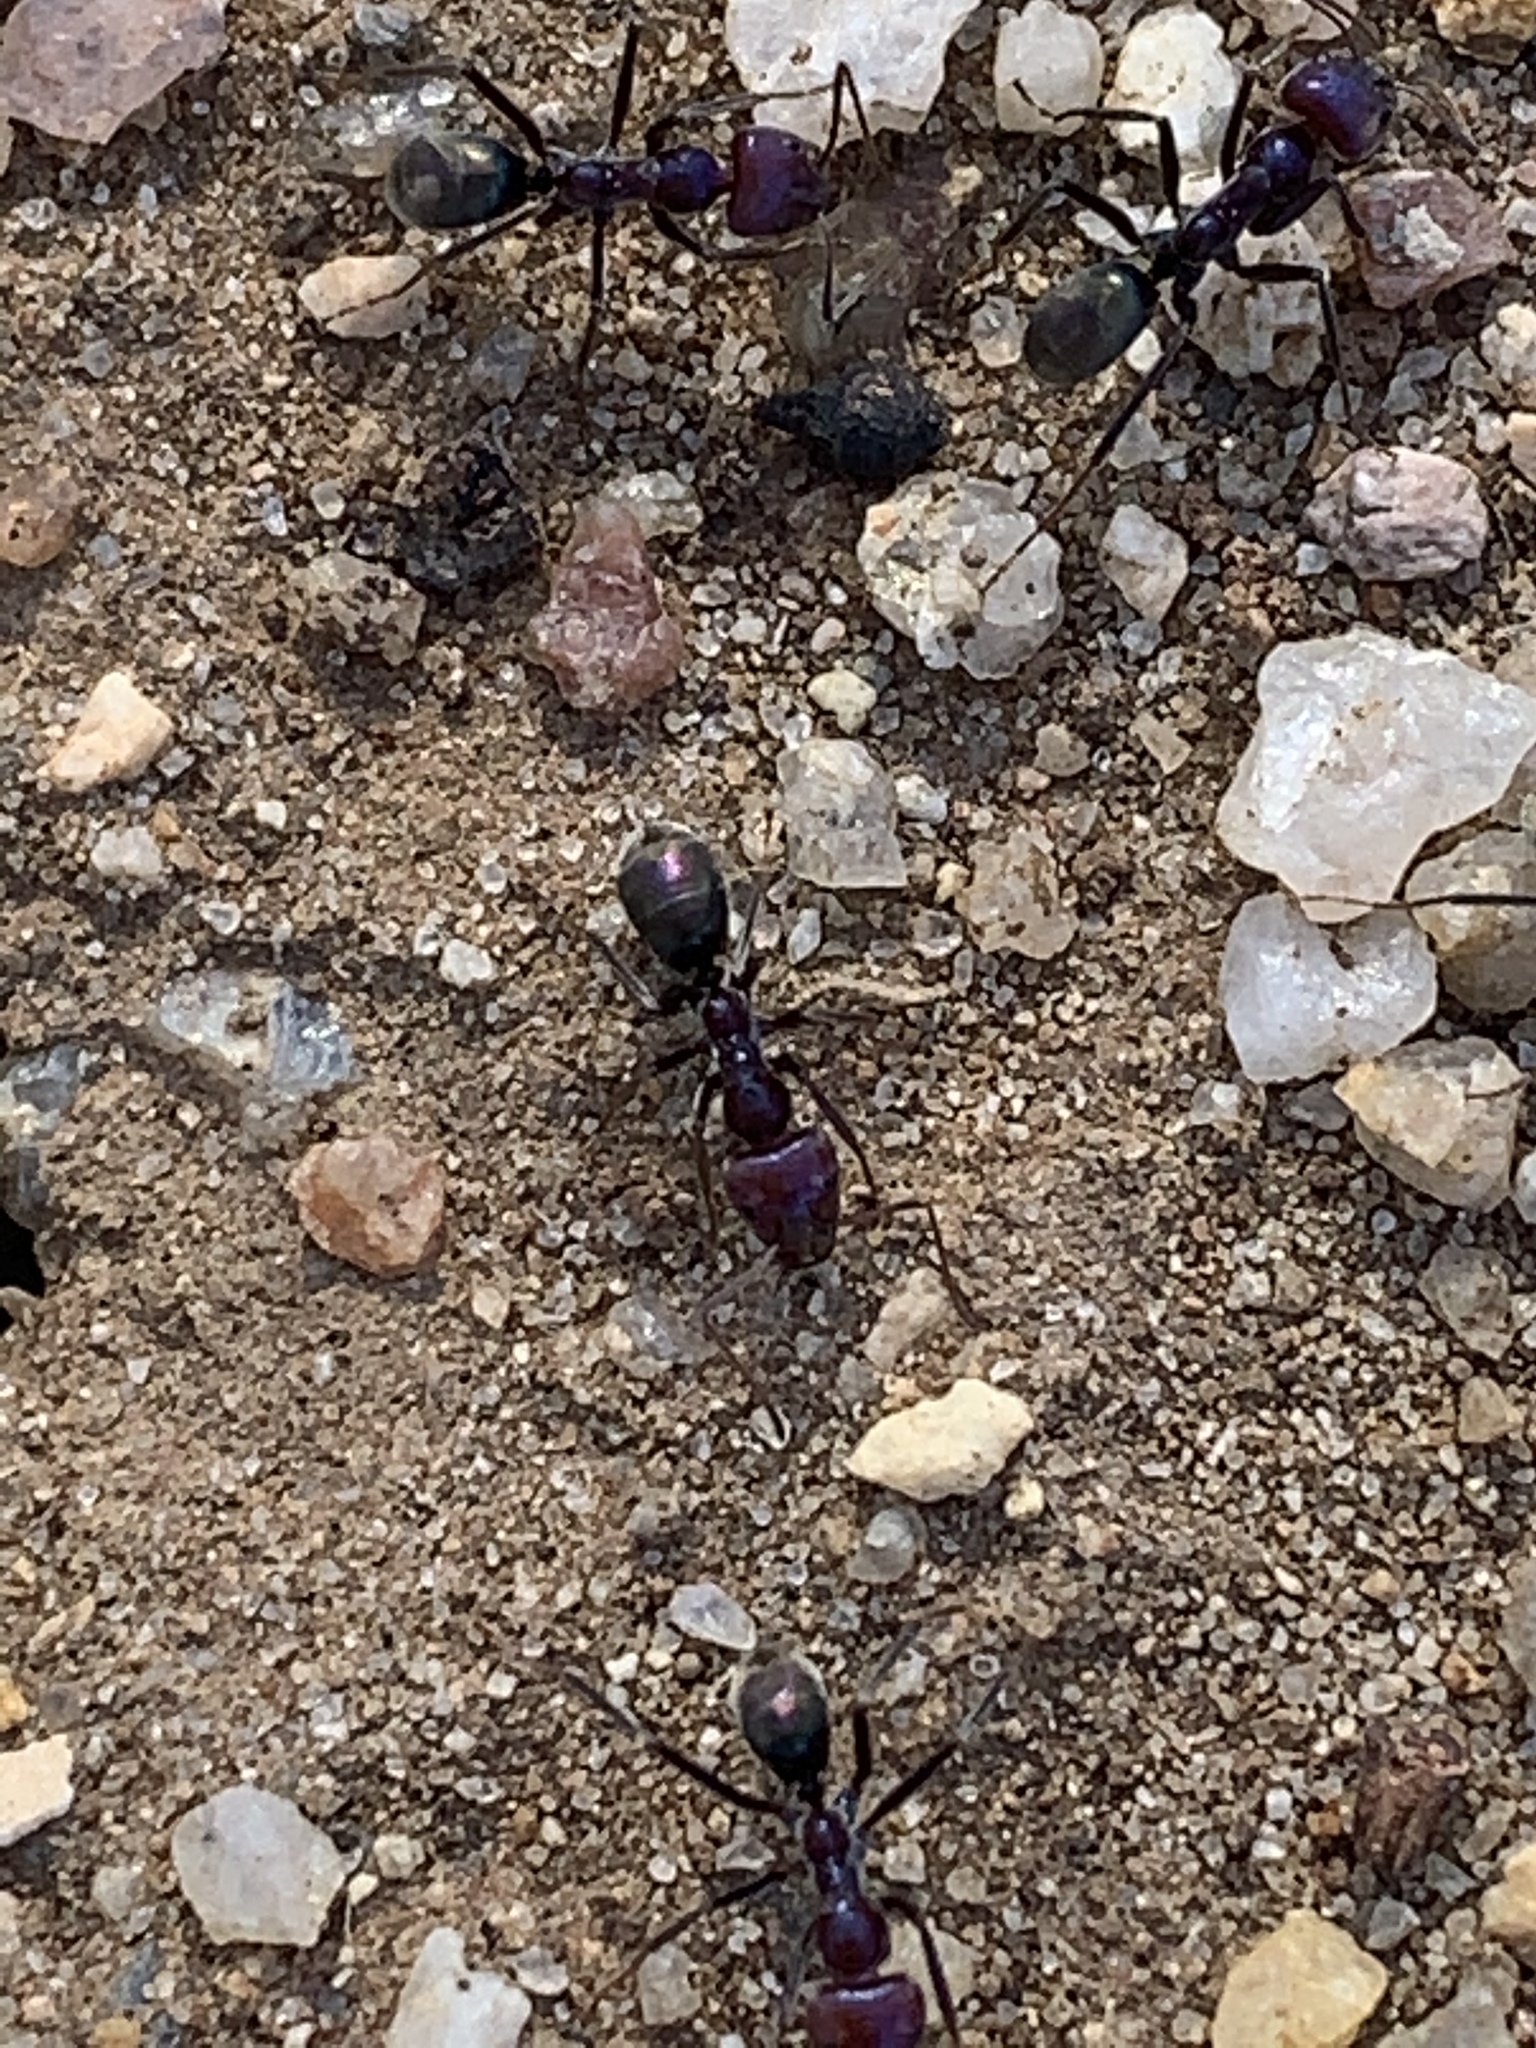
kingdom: Animalia
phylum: Arthropoda
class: Insecta
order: Hymenoptera
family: Formicidae
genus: Iridomyrmex
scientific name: Iridomyrmex purpureus
